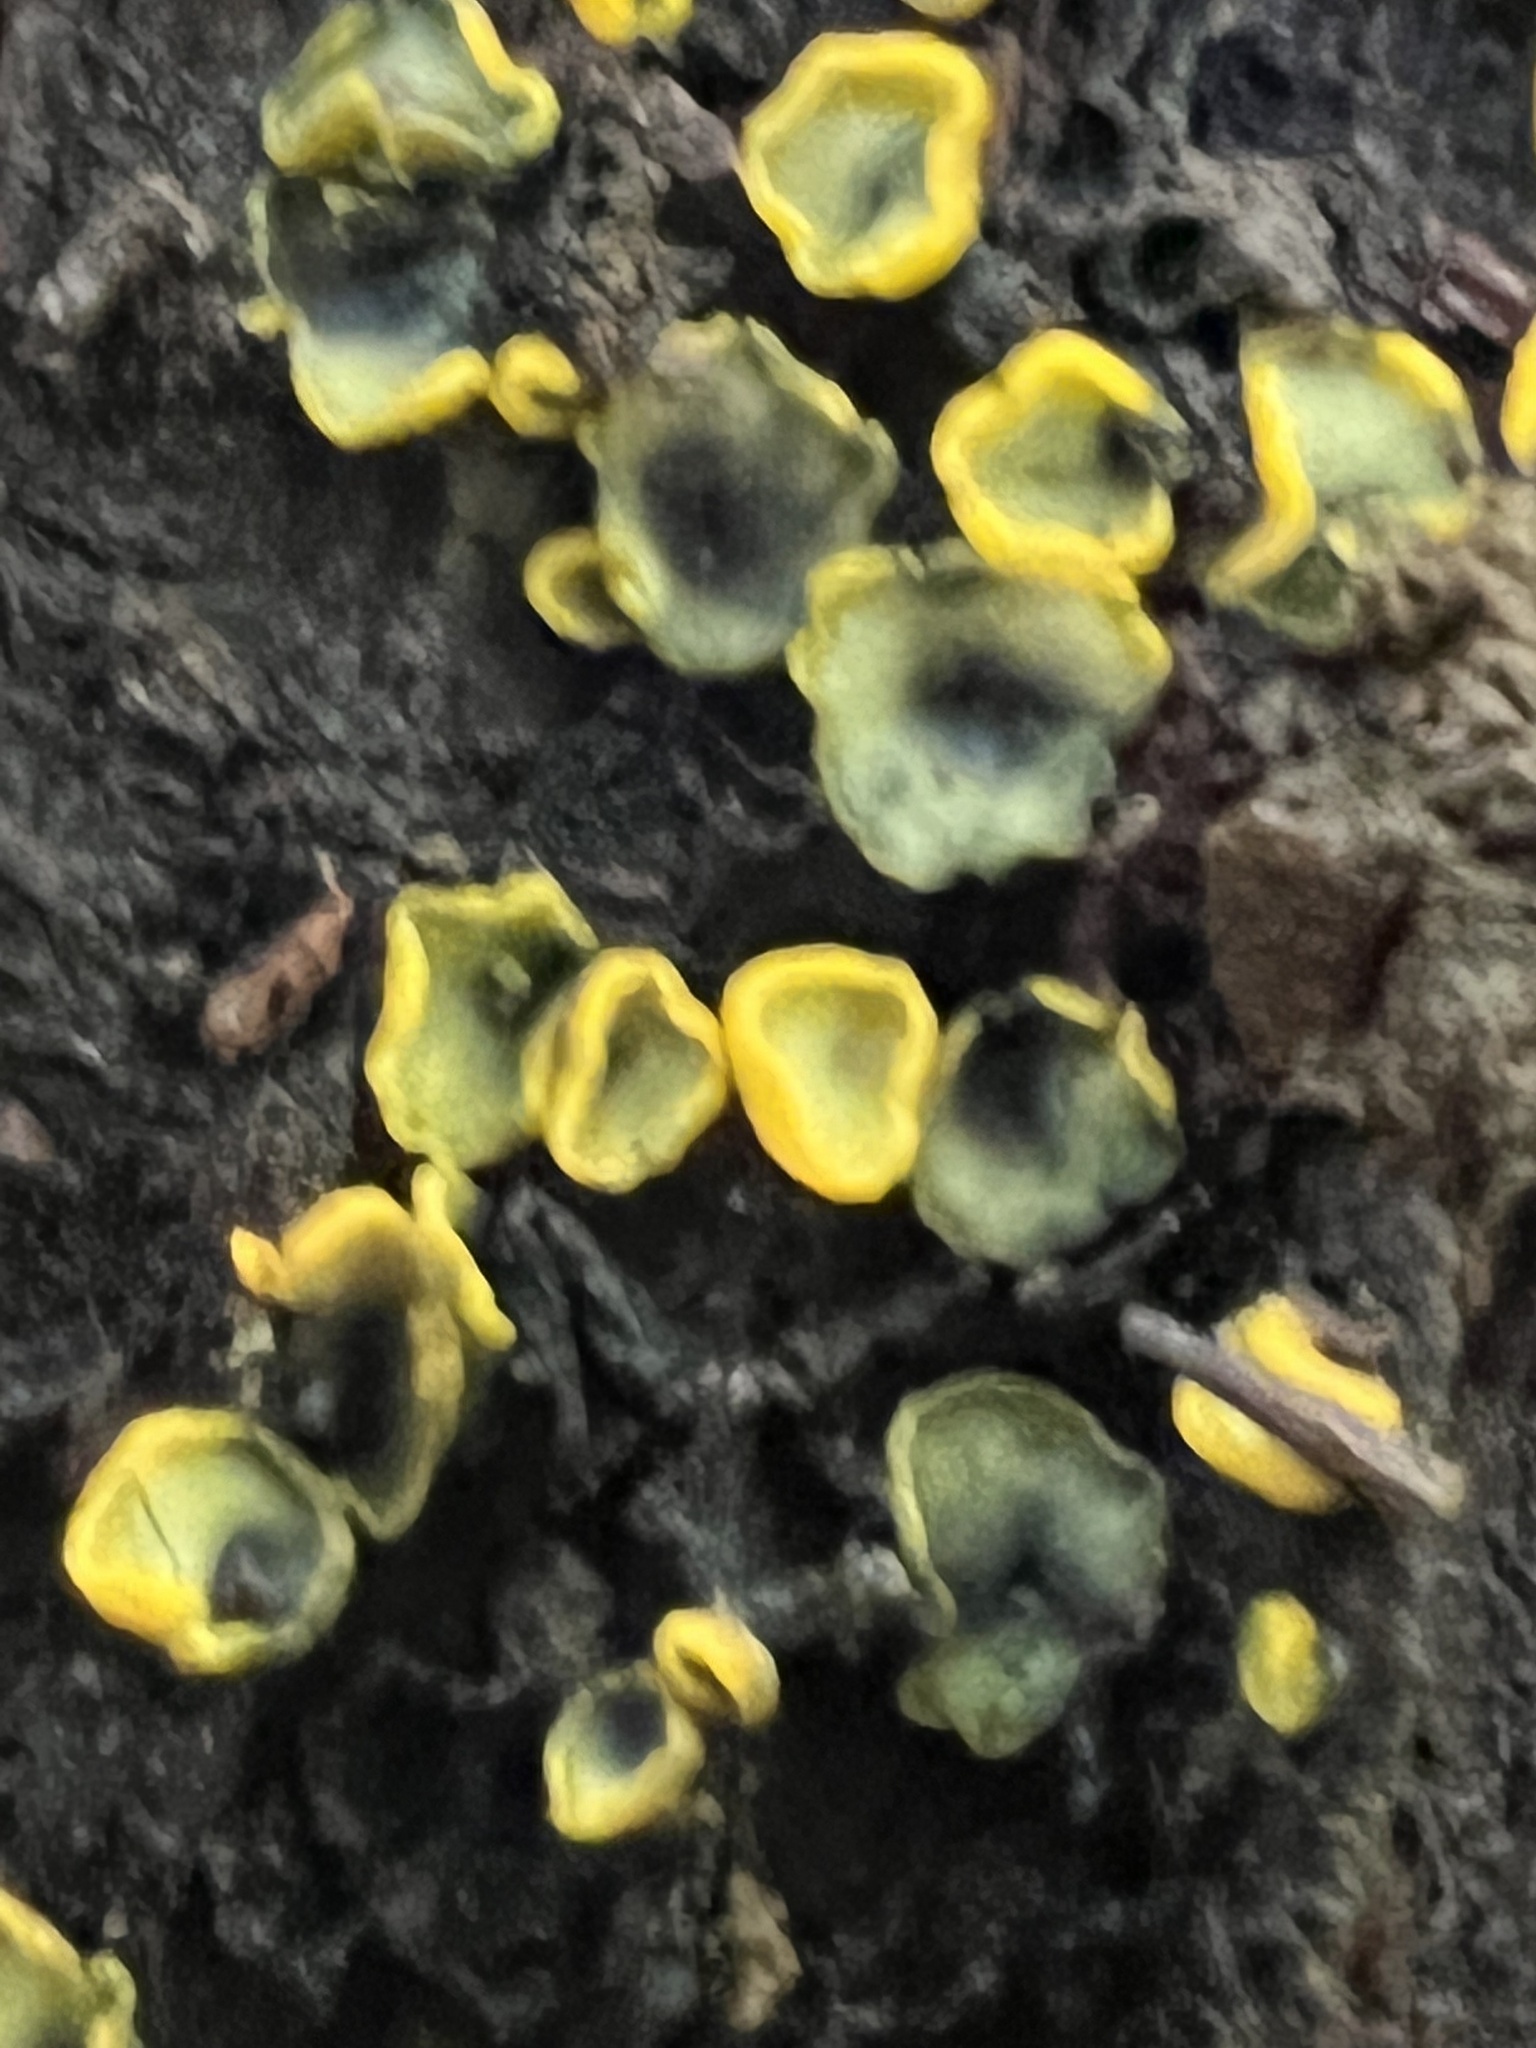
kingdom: Fungi
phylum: Ascomycota
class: Leotiomycetes
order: Helotiales
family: Chlorospleniaceae
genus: Chlorosplenium
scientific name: Chlorosplenium chlora
